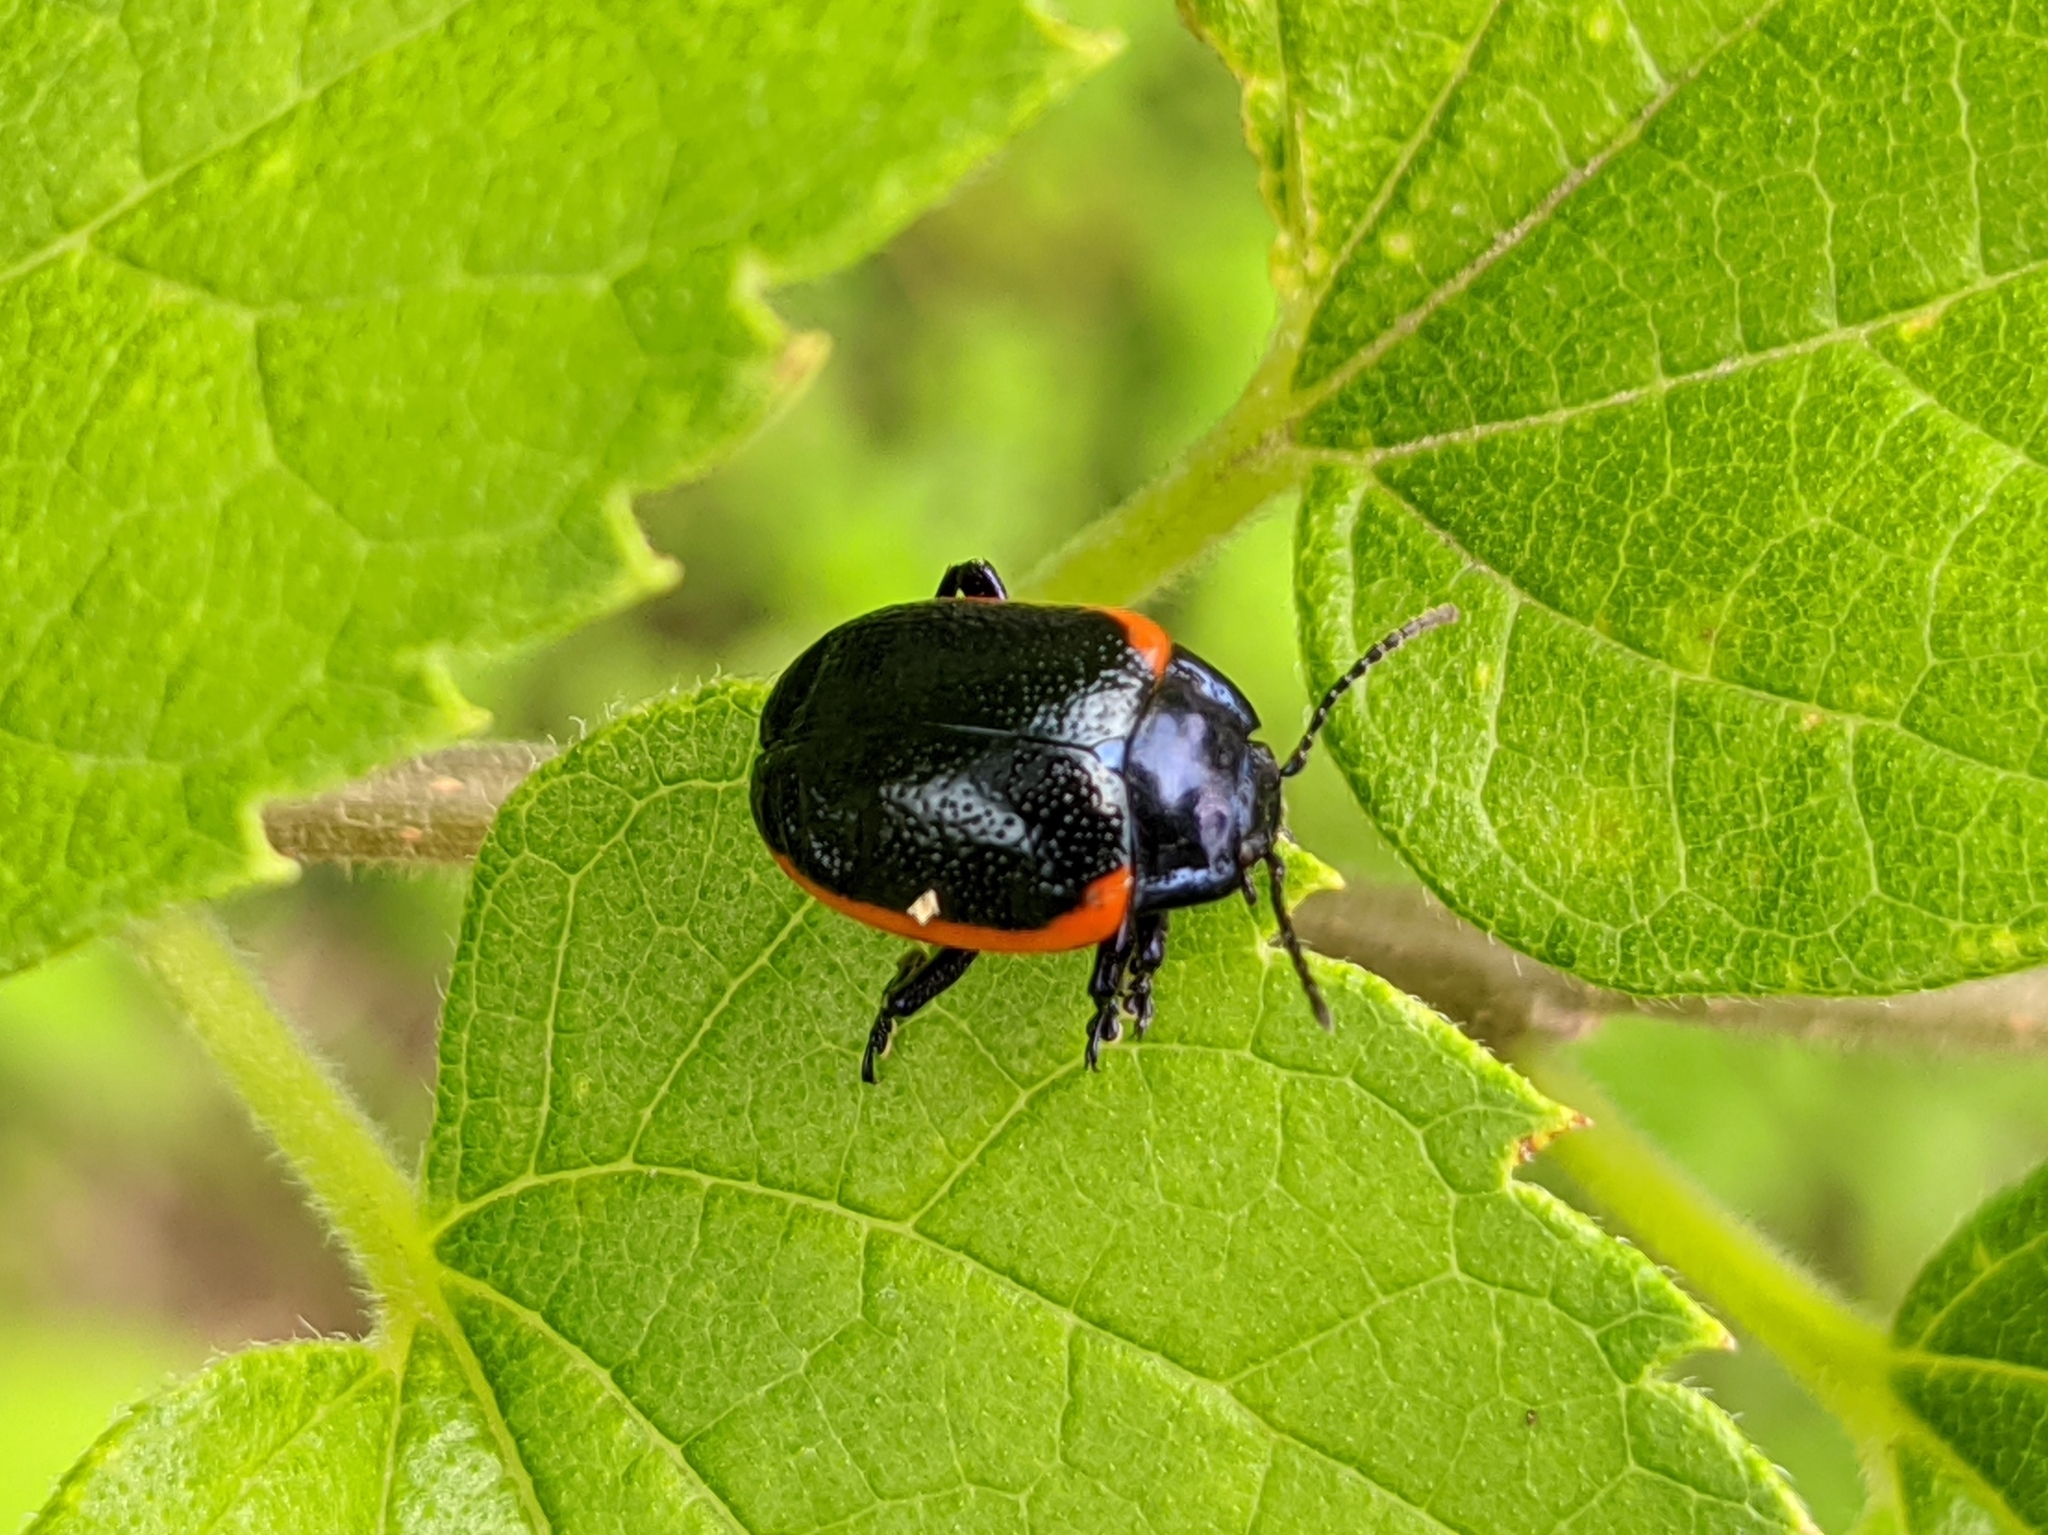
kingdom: Animalia
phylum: Arthropoda
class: Insecta
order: Coleoptera
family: Chrysomelidae
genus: Chrysolina
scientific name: Chrysolina sanguinolenta
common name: Toadflax leaf beetle
